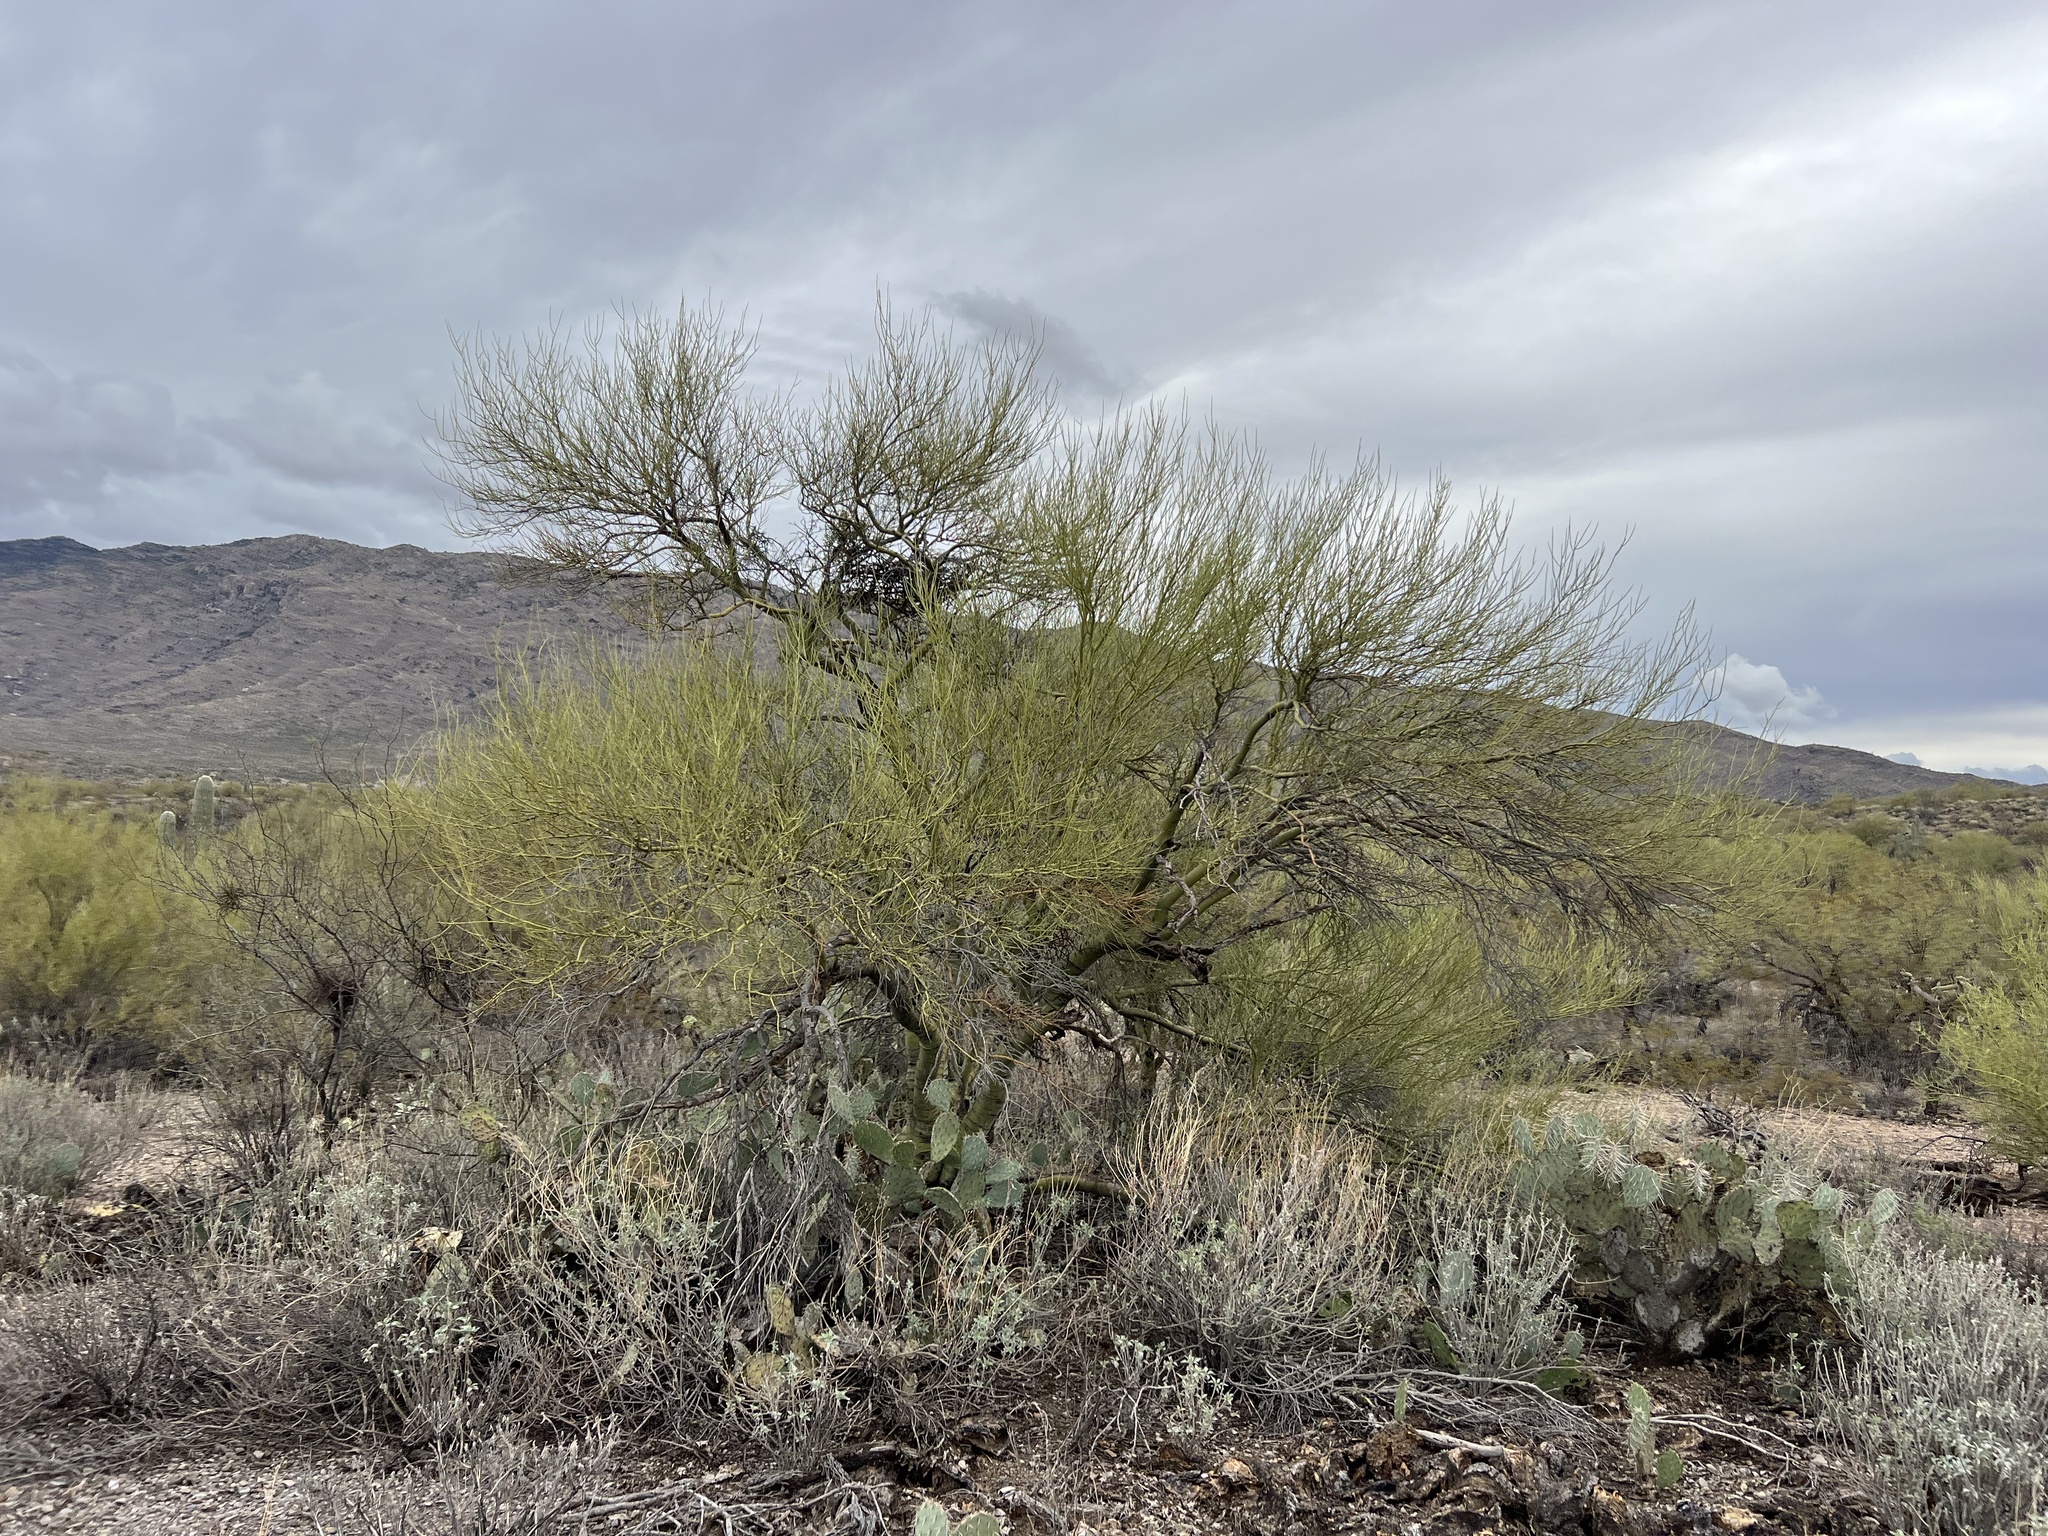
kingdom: Plantae
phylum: Tracheophyta
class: Magnoliopsida
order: Fabales
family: Fabaceae
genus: Parkinsonia
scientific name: Parkinsonia microphylla
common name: Yellow paloverde
